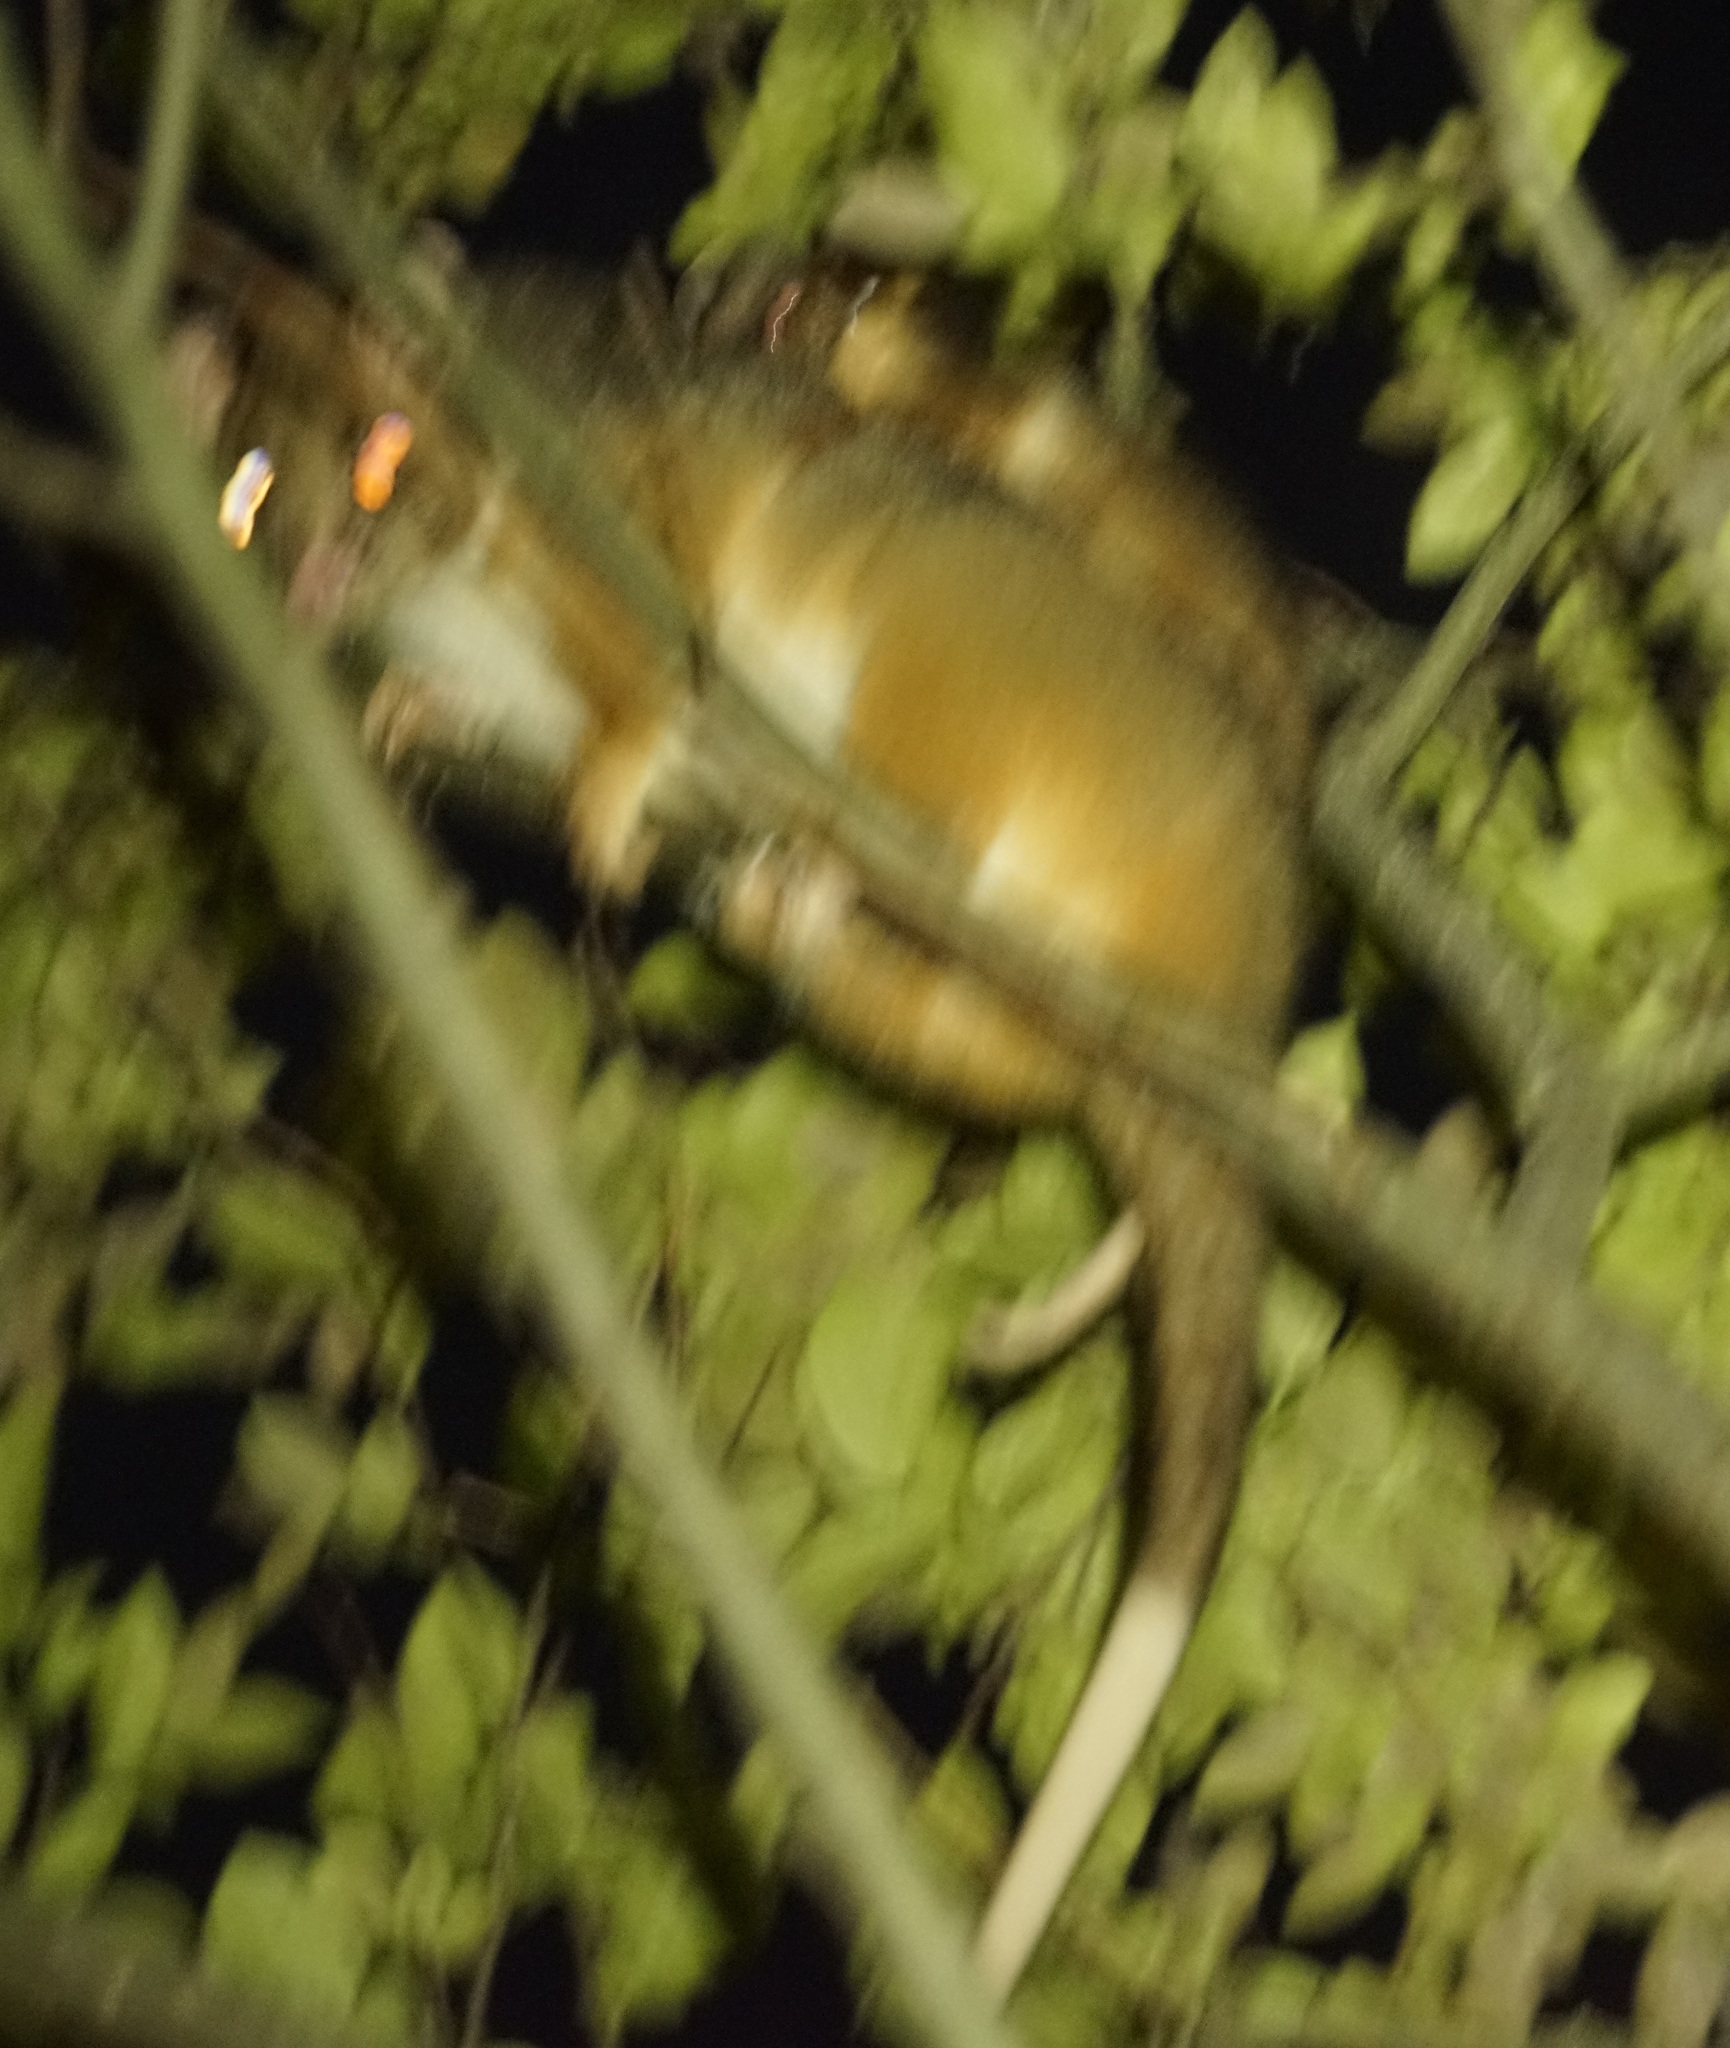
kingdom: Animalia
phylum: Chordata
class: Mammalia
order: Diprotodontia
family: Pseudocheiridae
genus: Pseudocheirus
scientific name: Pseudocheirus peregrinus
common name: Common ringtail possum
